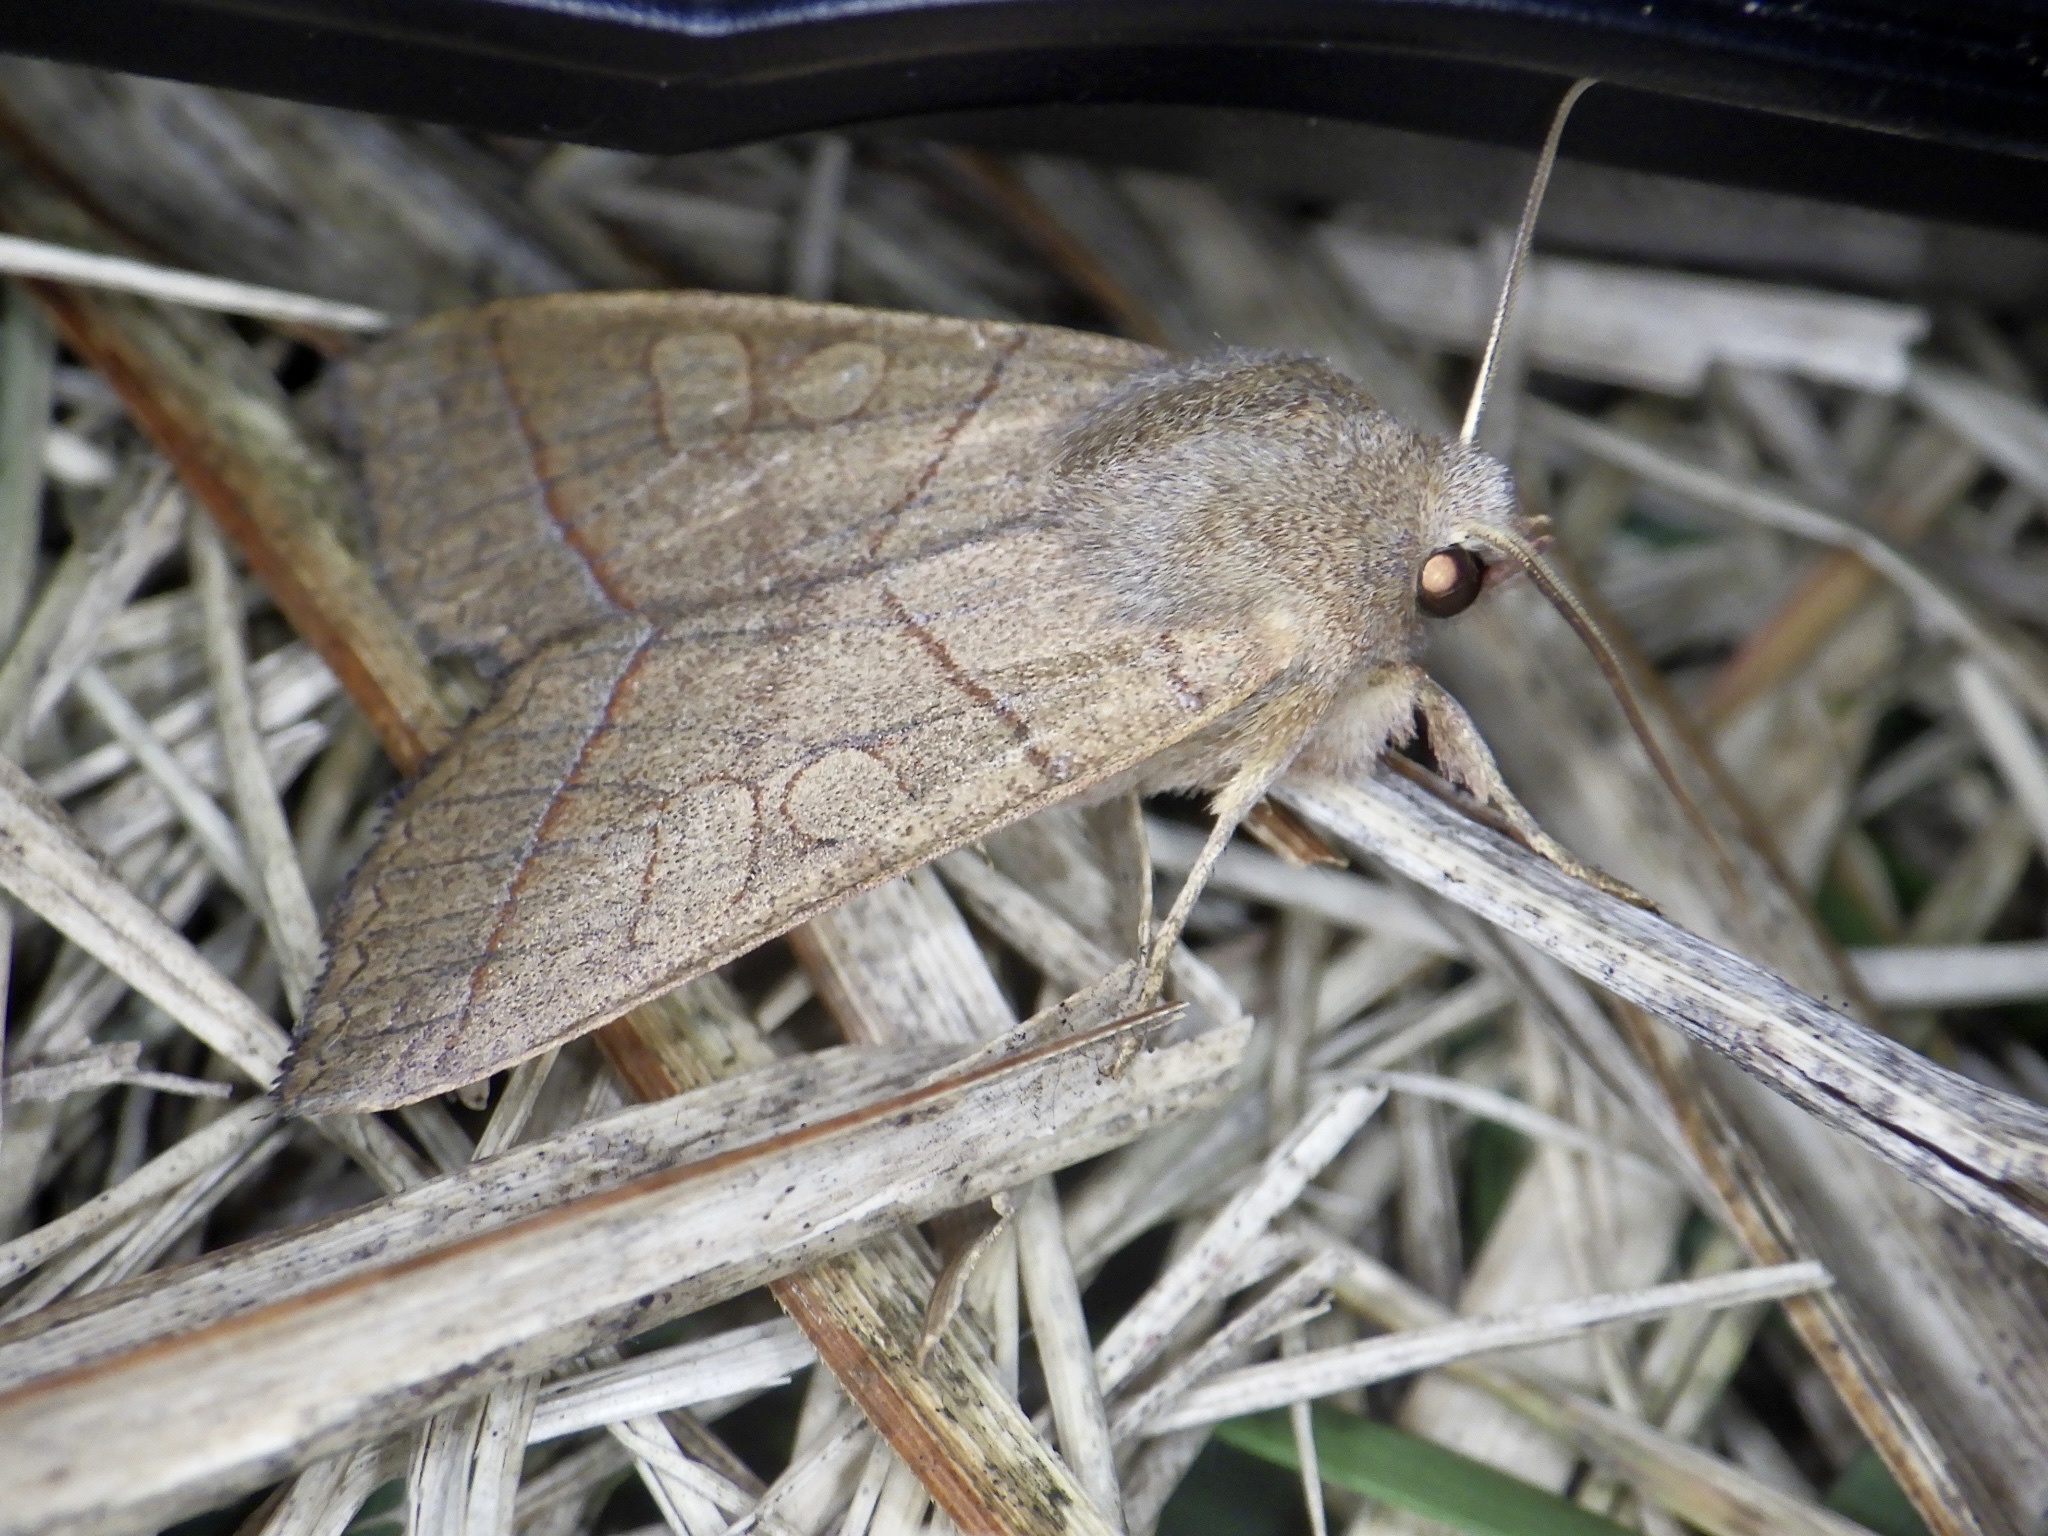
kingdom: Animalia
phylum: Arthropoda
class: Insecta
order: Lepidoptera
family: Noctuidae
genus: Telorta
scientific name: Telorta divergens
